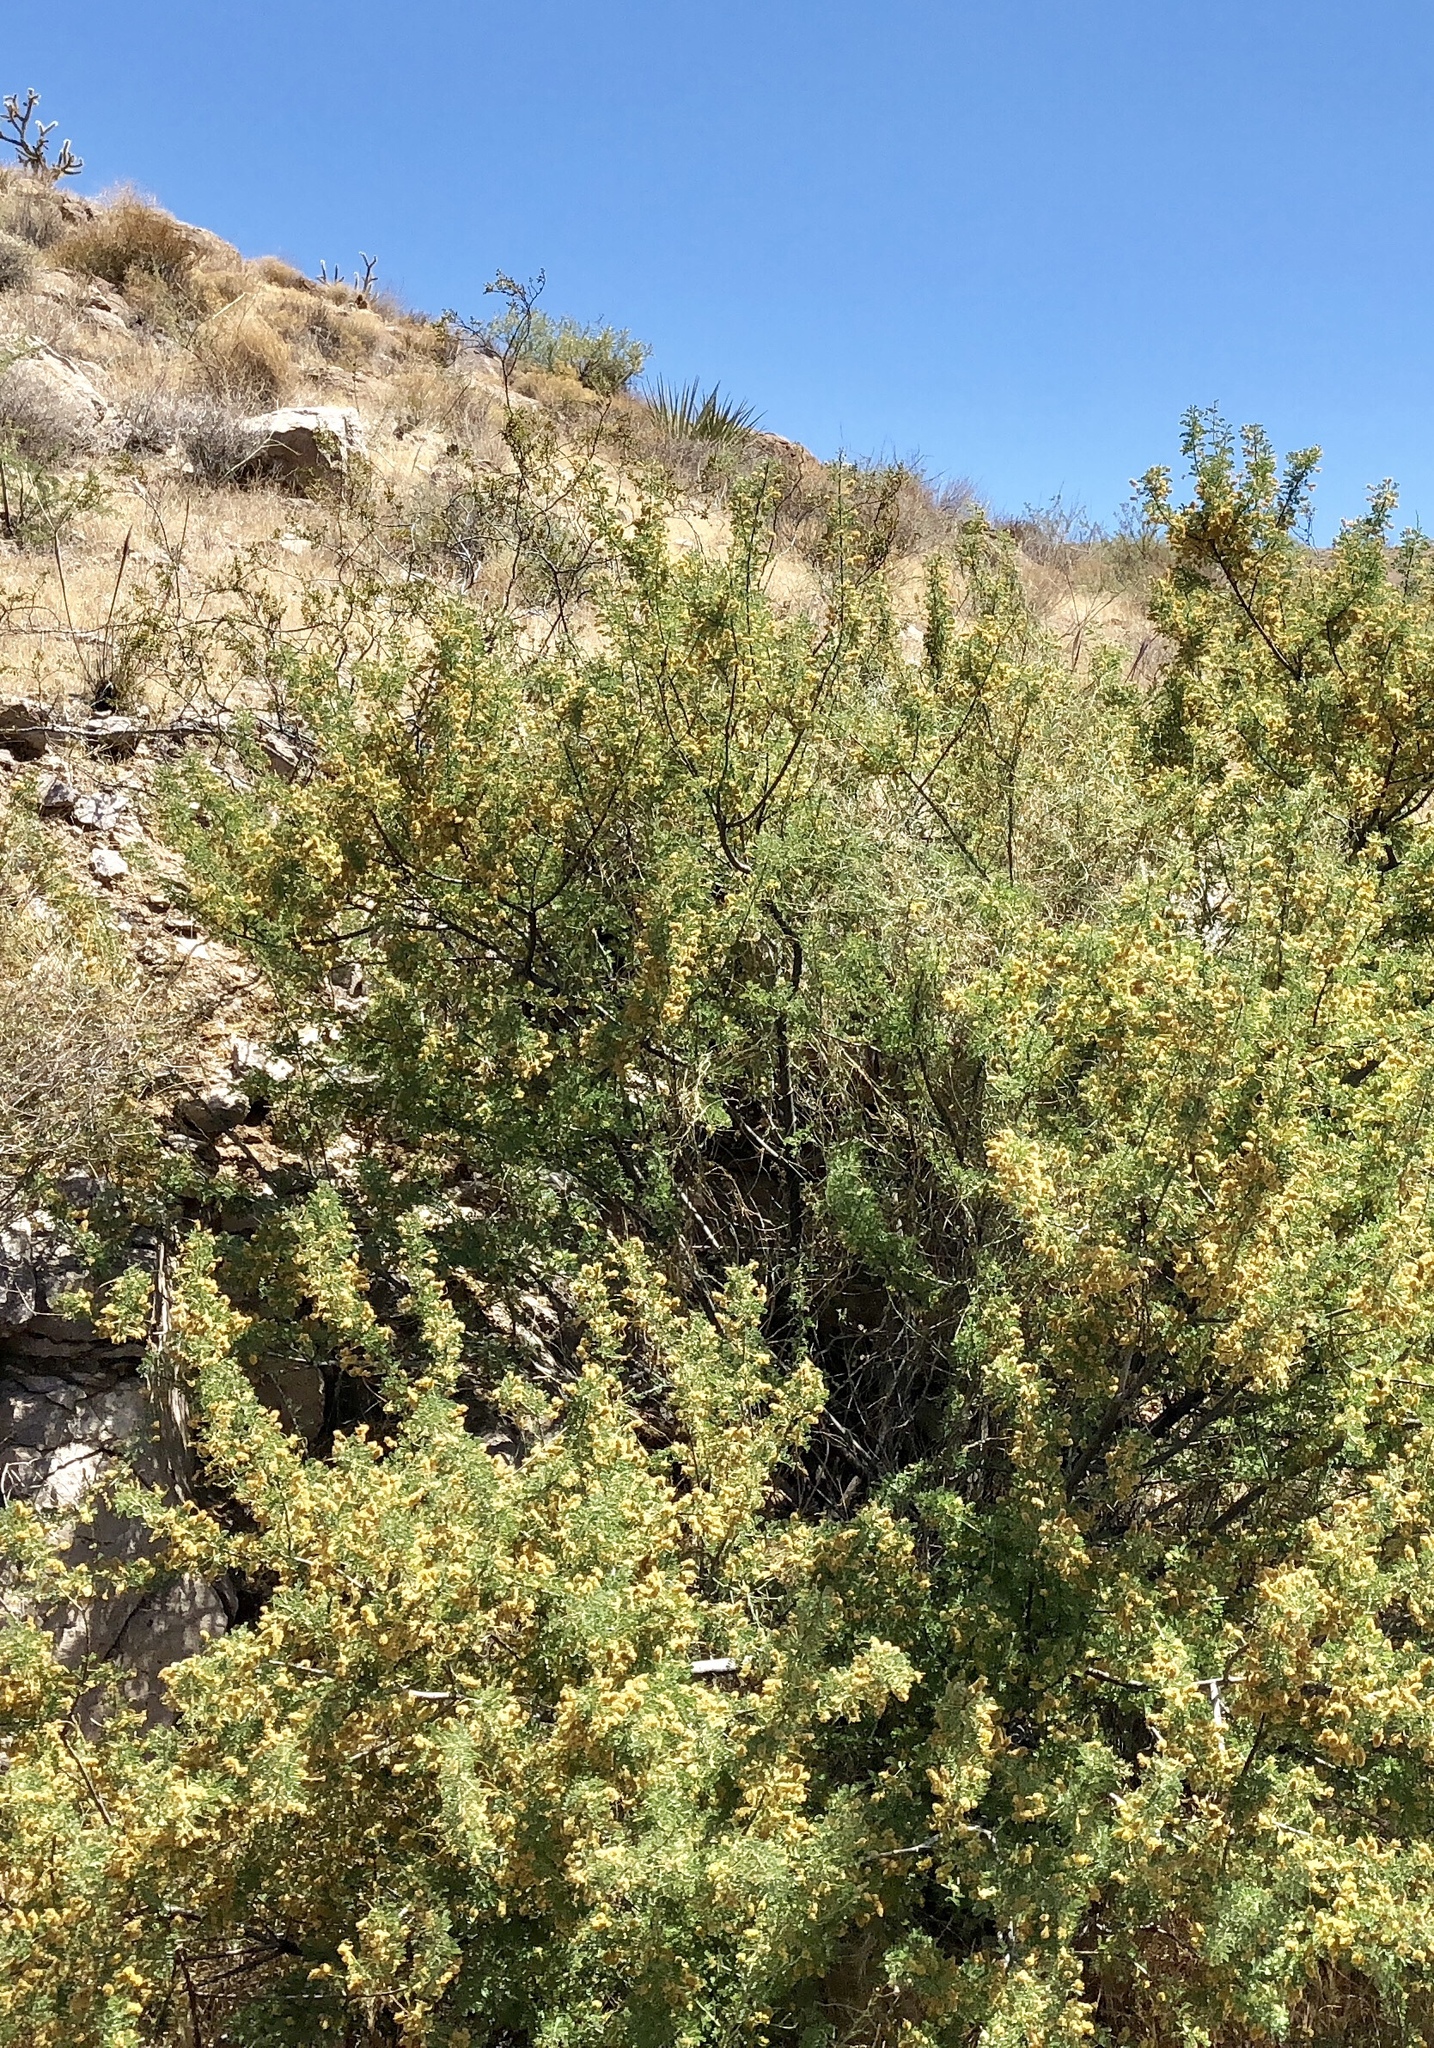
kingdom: Plantae
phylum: Tracheophyta
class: Magnoliopsida
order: Fabales
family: Fabaceae
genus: Senegalia
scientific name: Senegalia greggii
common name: Texas-mimosa
